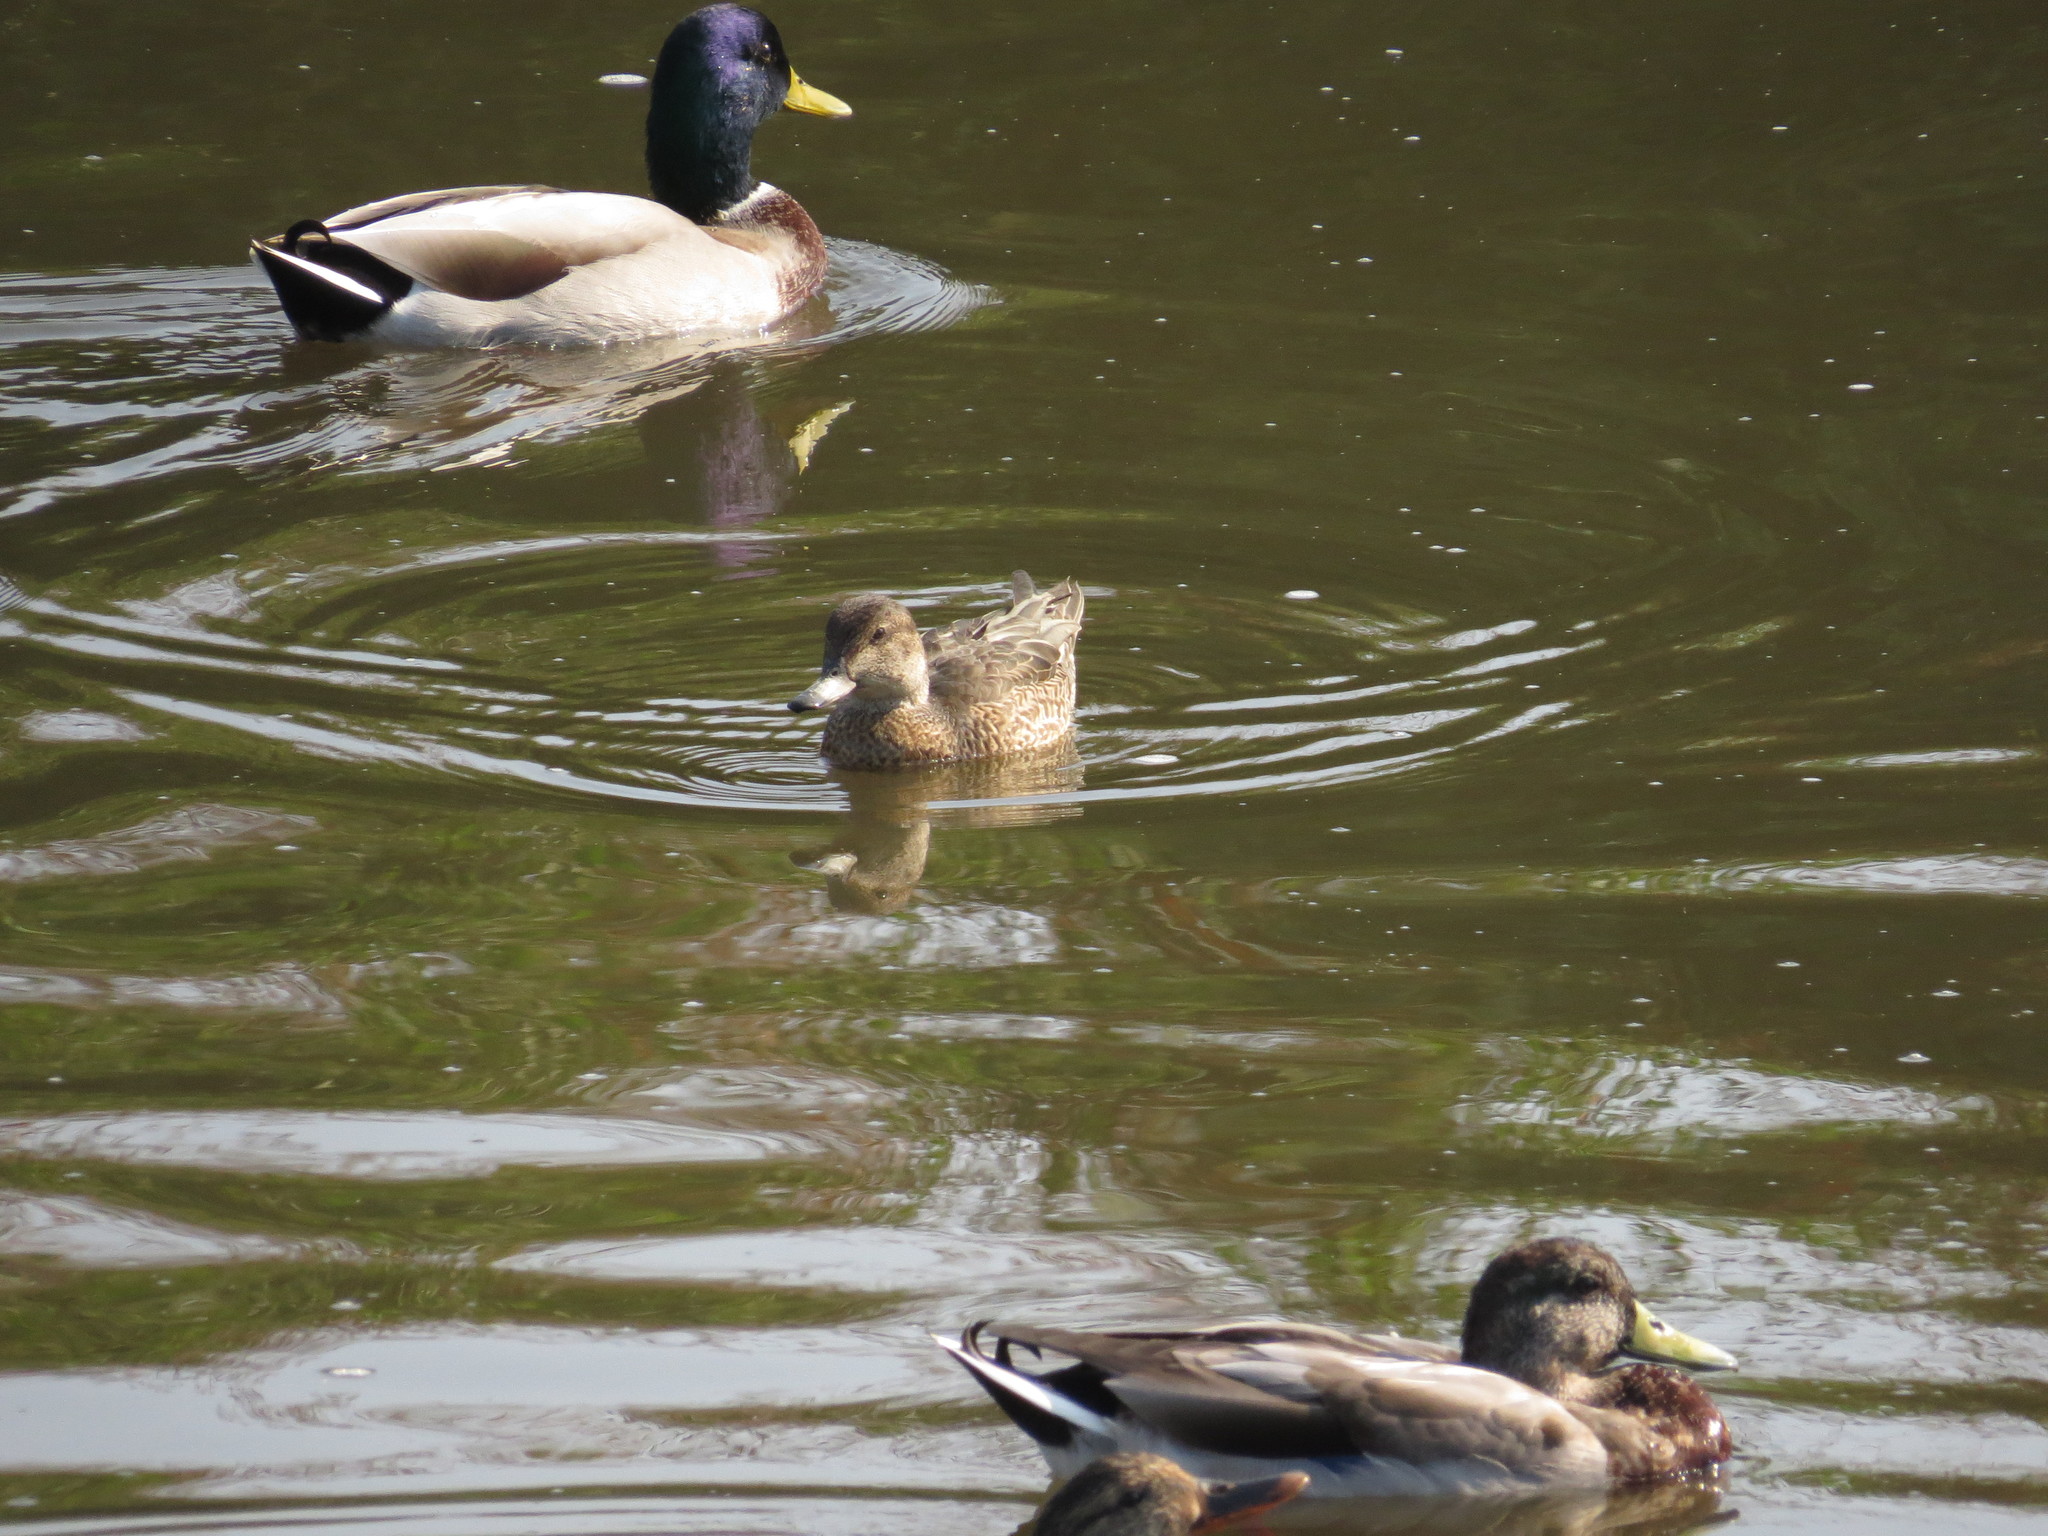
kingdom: Animalia
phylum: Chordata
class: Aves
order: Anseriformes
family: Anatidae
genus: Anas
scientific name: Anas platyrhynchos
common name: Mallard
